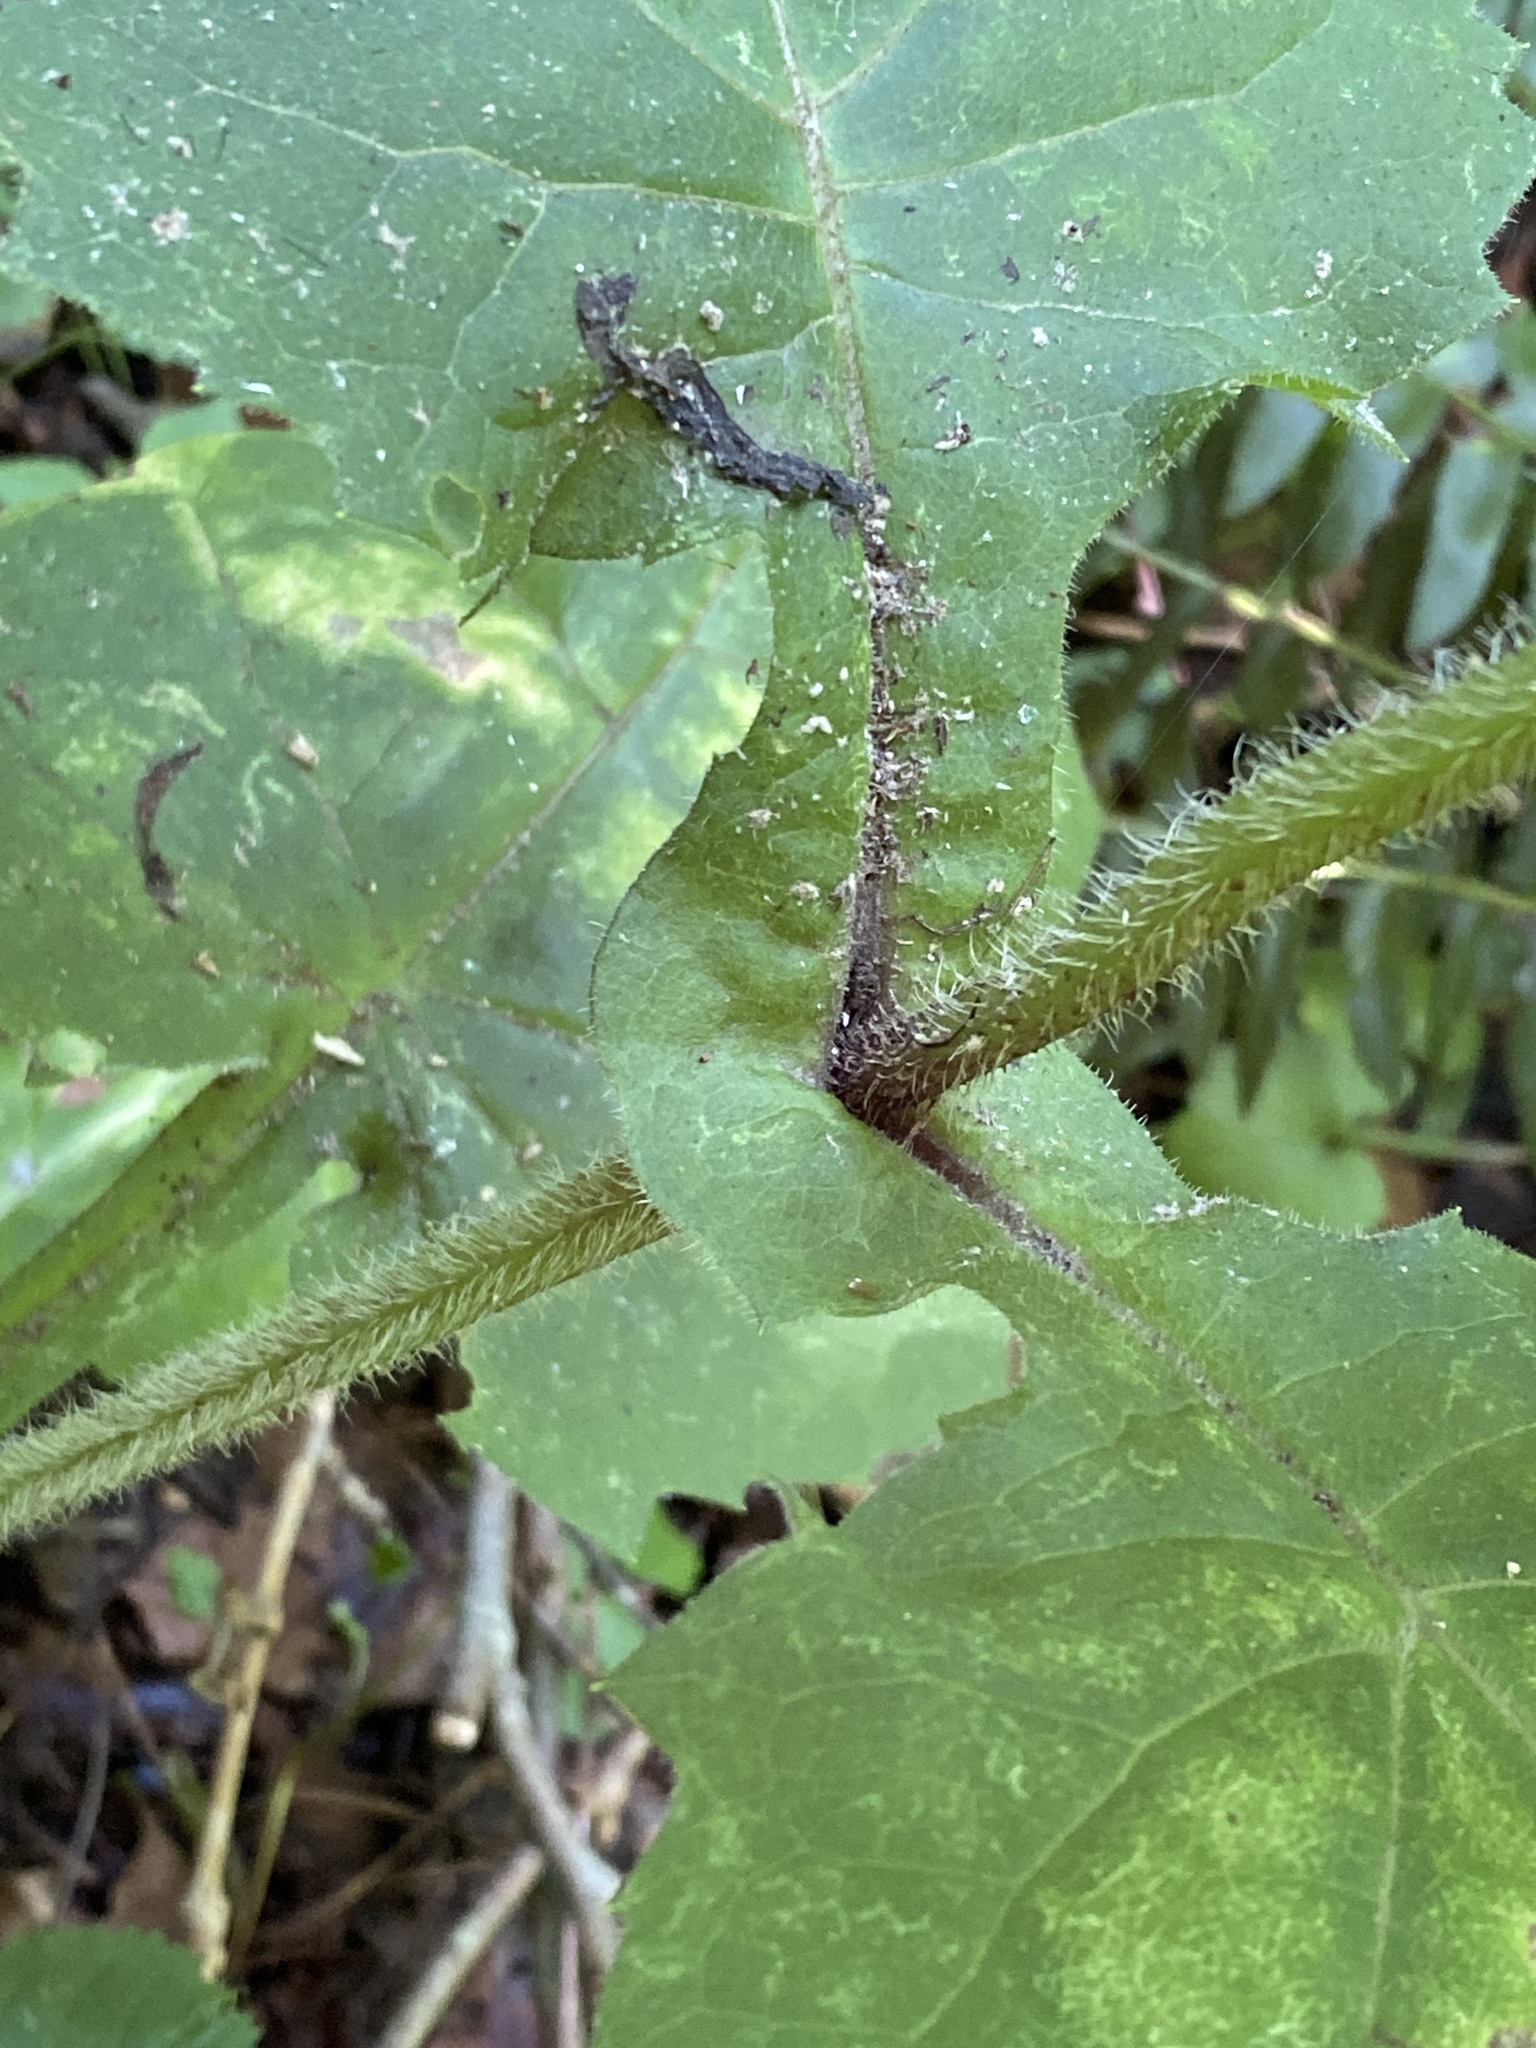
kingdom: Plantae
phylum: Tracheophyta
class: Magnoliopsida
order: Asterales
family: Asteraceae
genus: Silphium
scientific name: Silphium perfoliatum
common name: Cup-plant
